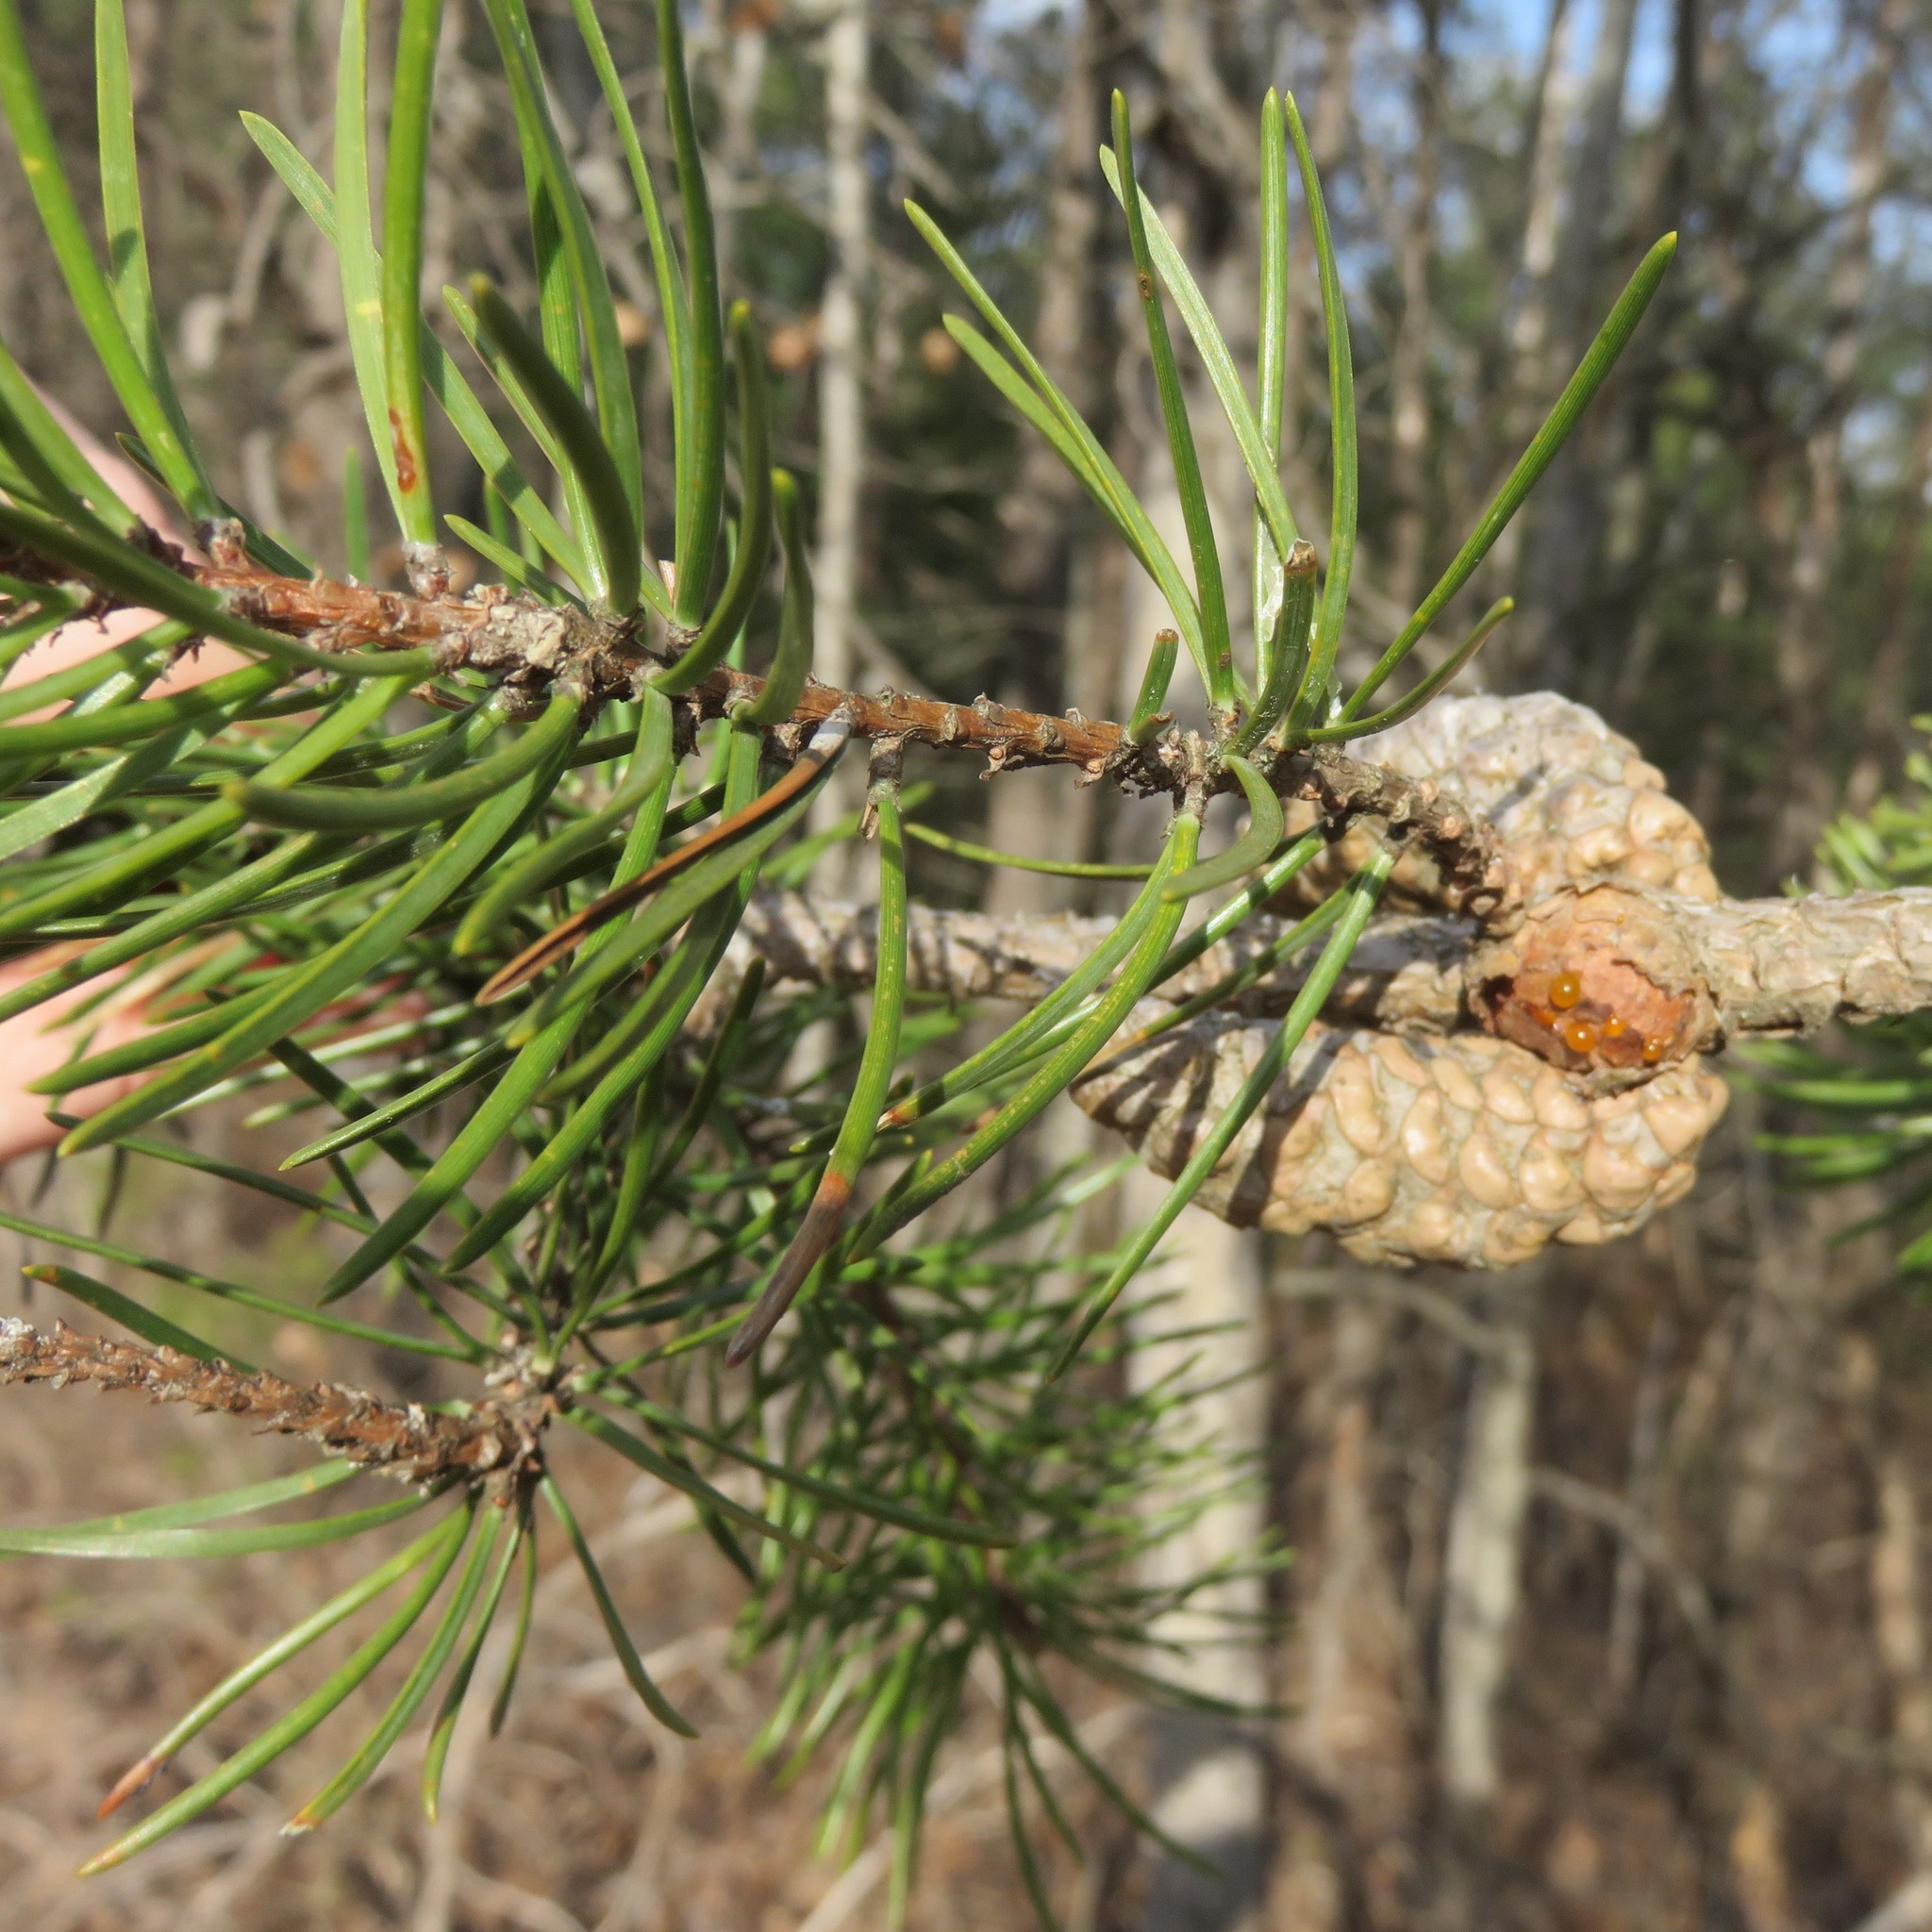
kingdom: Plantae
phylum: Tracheophyta
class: Pinopsida
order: Pinales
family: Pinaceae
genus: Pinus
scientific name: Pinus banksiana
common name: Jack pine
